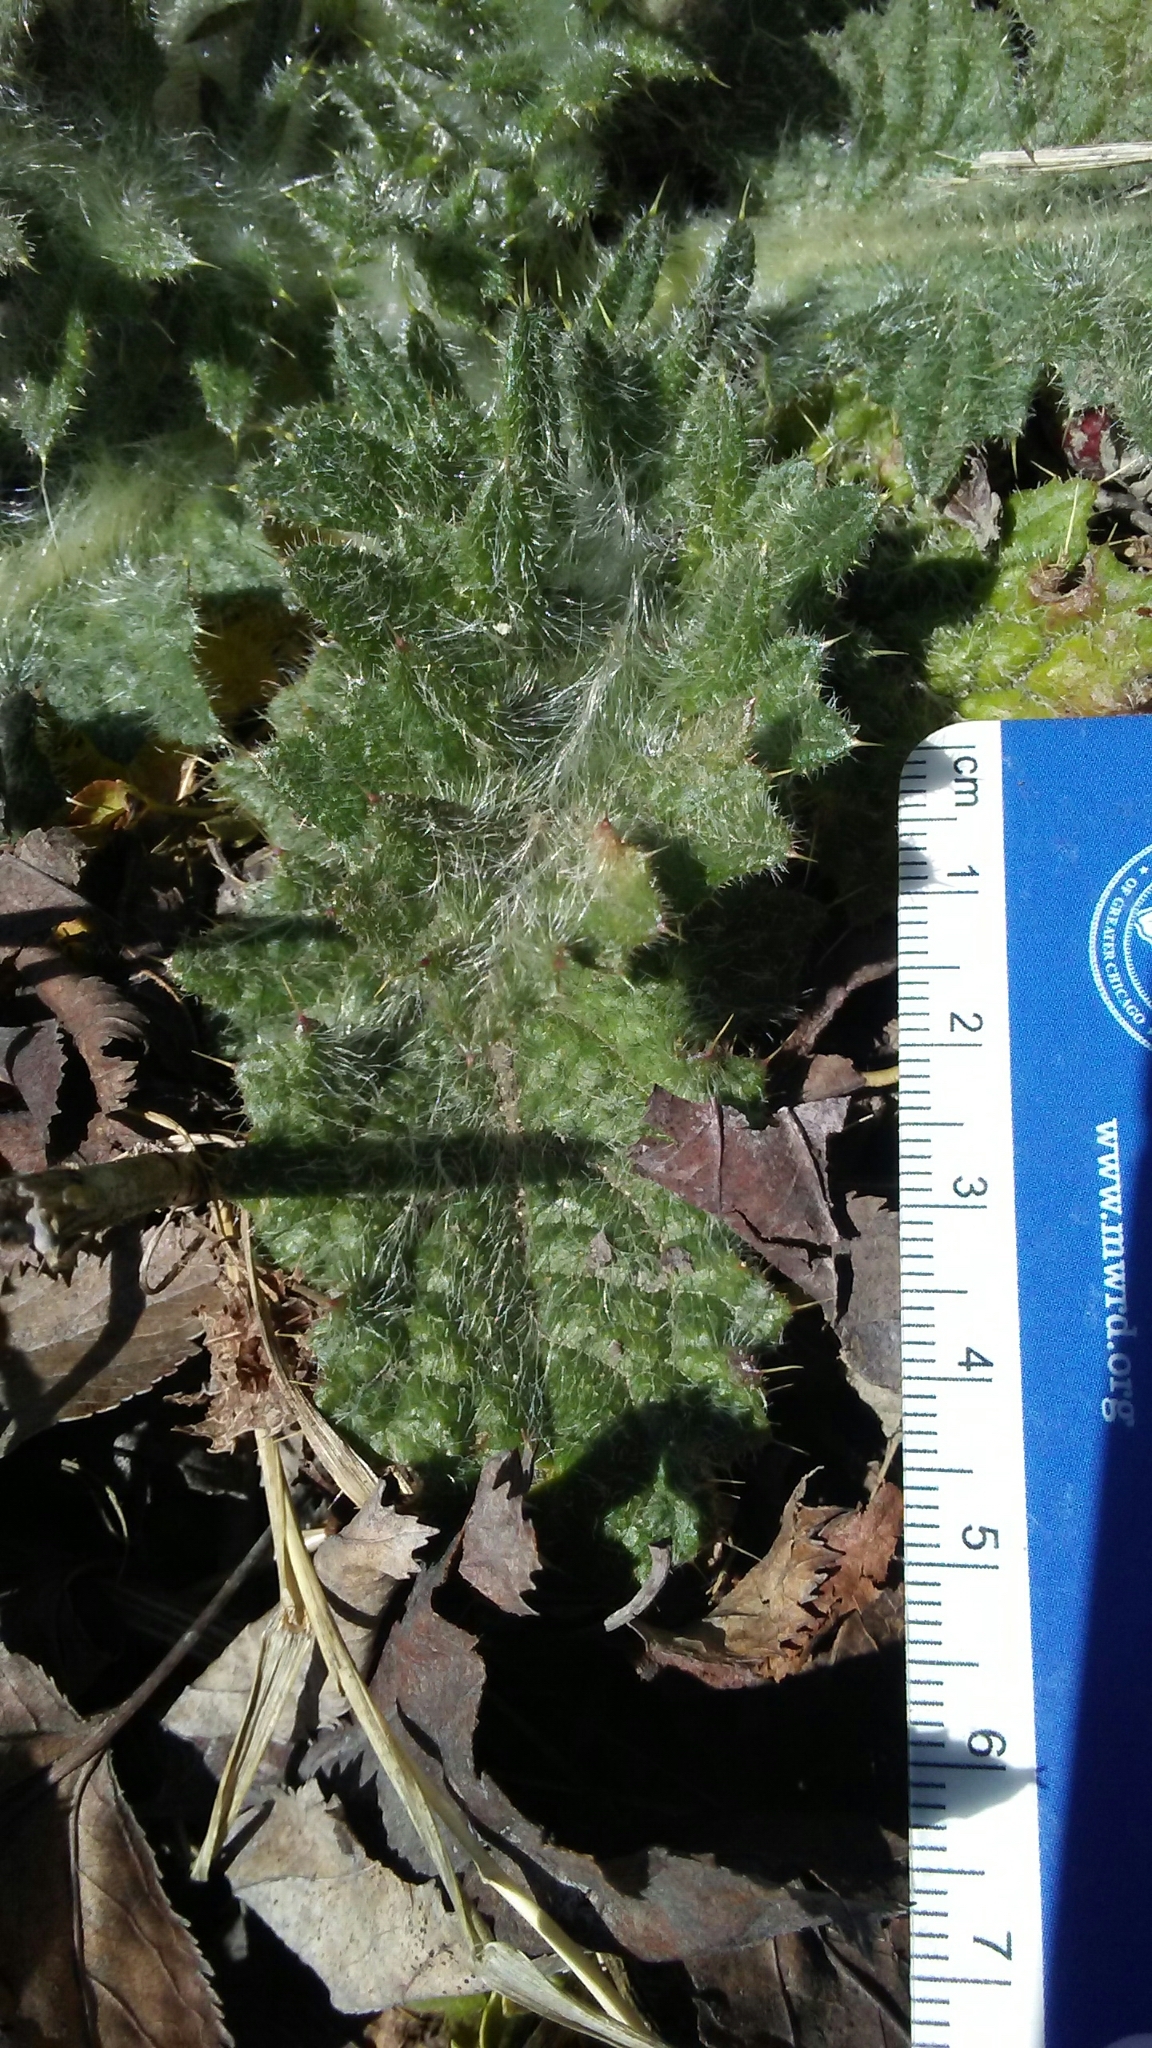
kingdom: Plantae
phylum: Tracheophyta
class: Magnoliopsida
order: Asterales
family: Asteraceae
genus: Cirsium
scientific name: Cirsium vulgare
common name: Bull thistle
